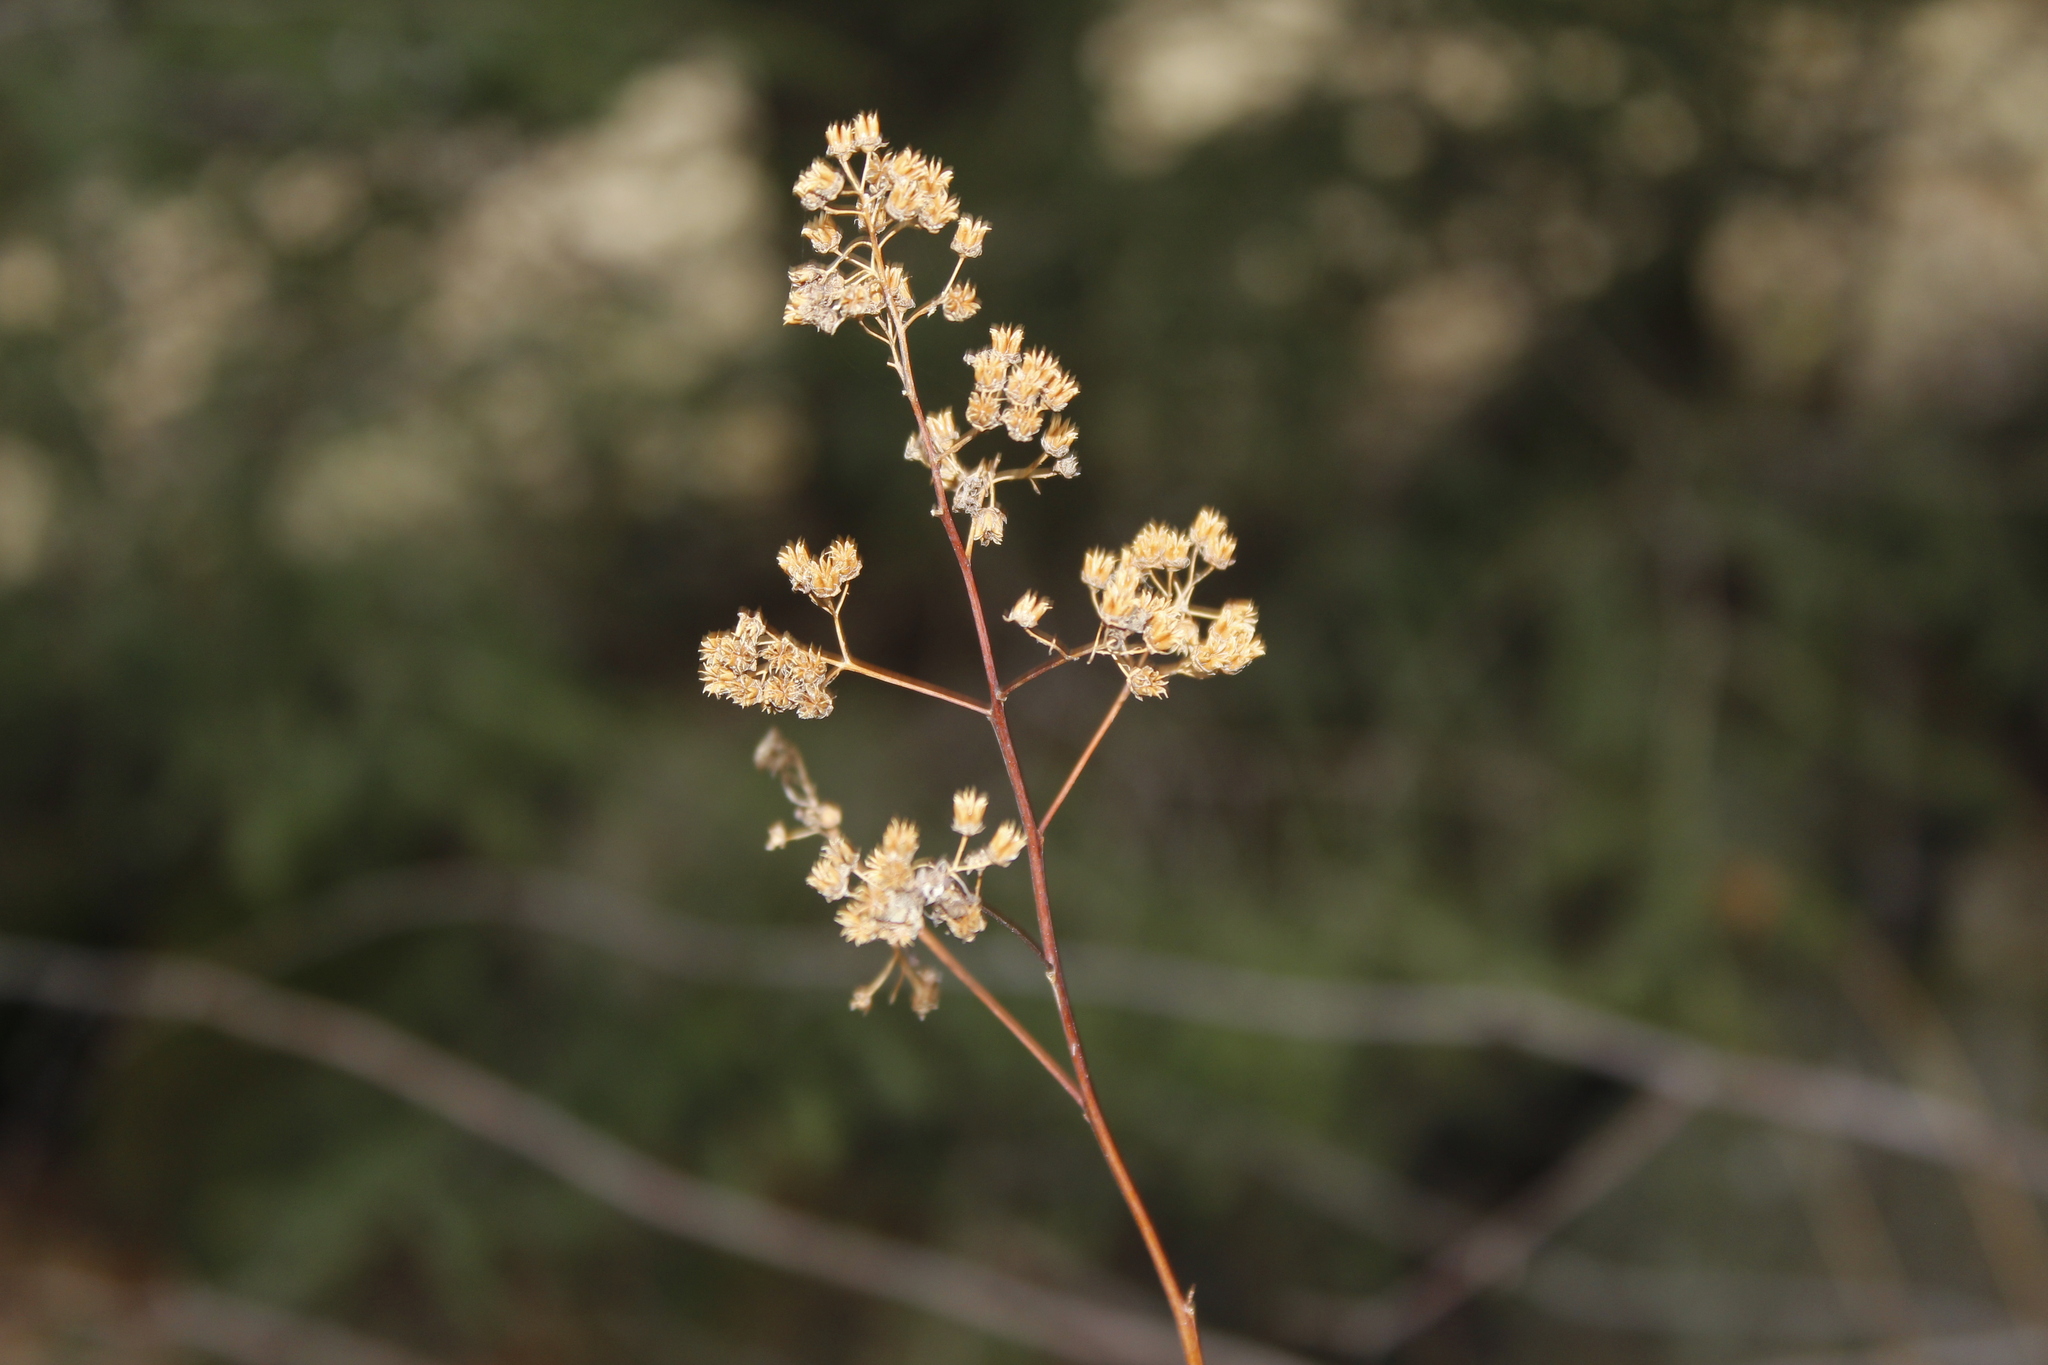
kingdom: Plantae
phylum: Tracheophyta
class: Magnoliopsida
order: Rosales
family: Rosaceae
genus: Spiraea
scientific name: Spiraea alba
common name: Pale bridewort
